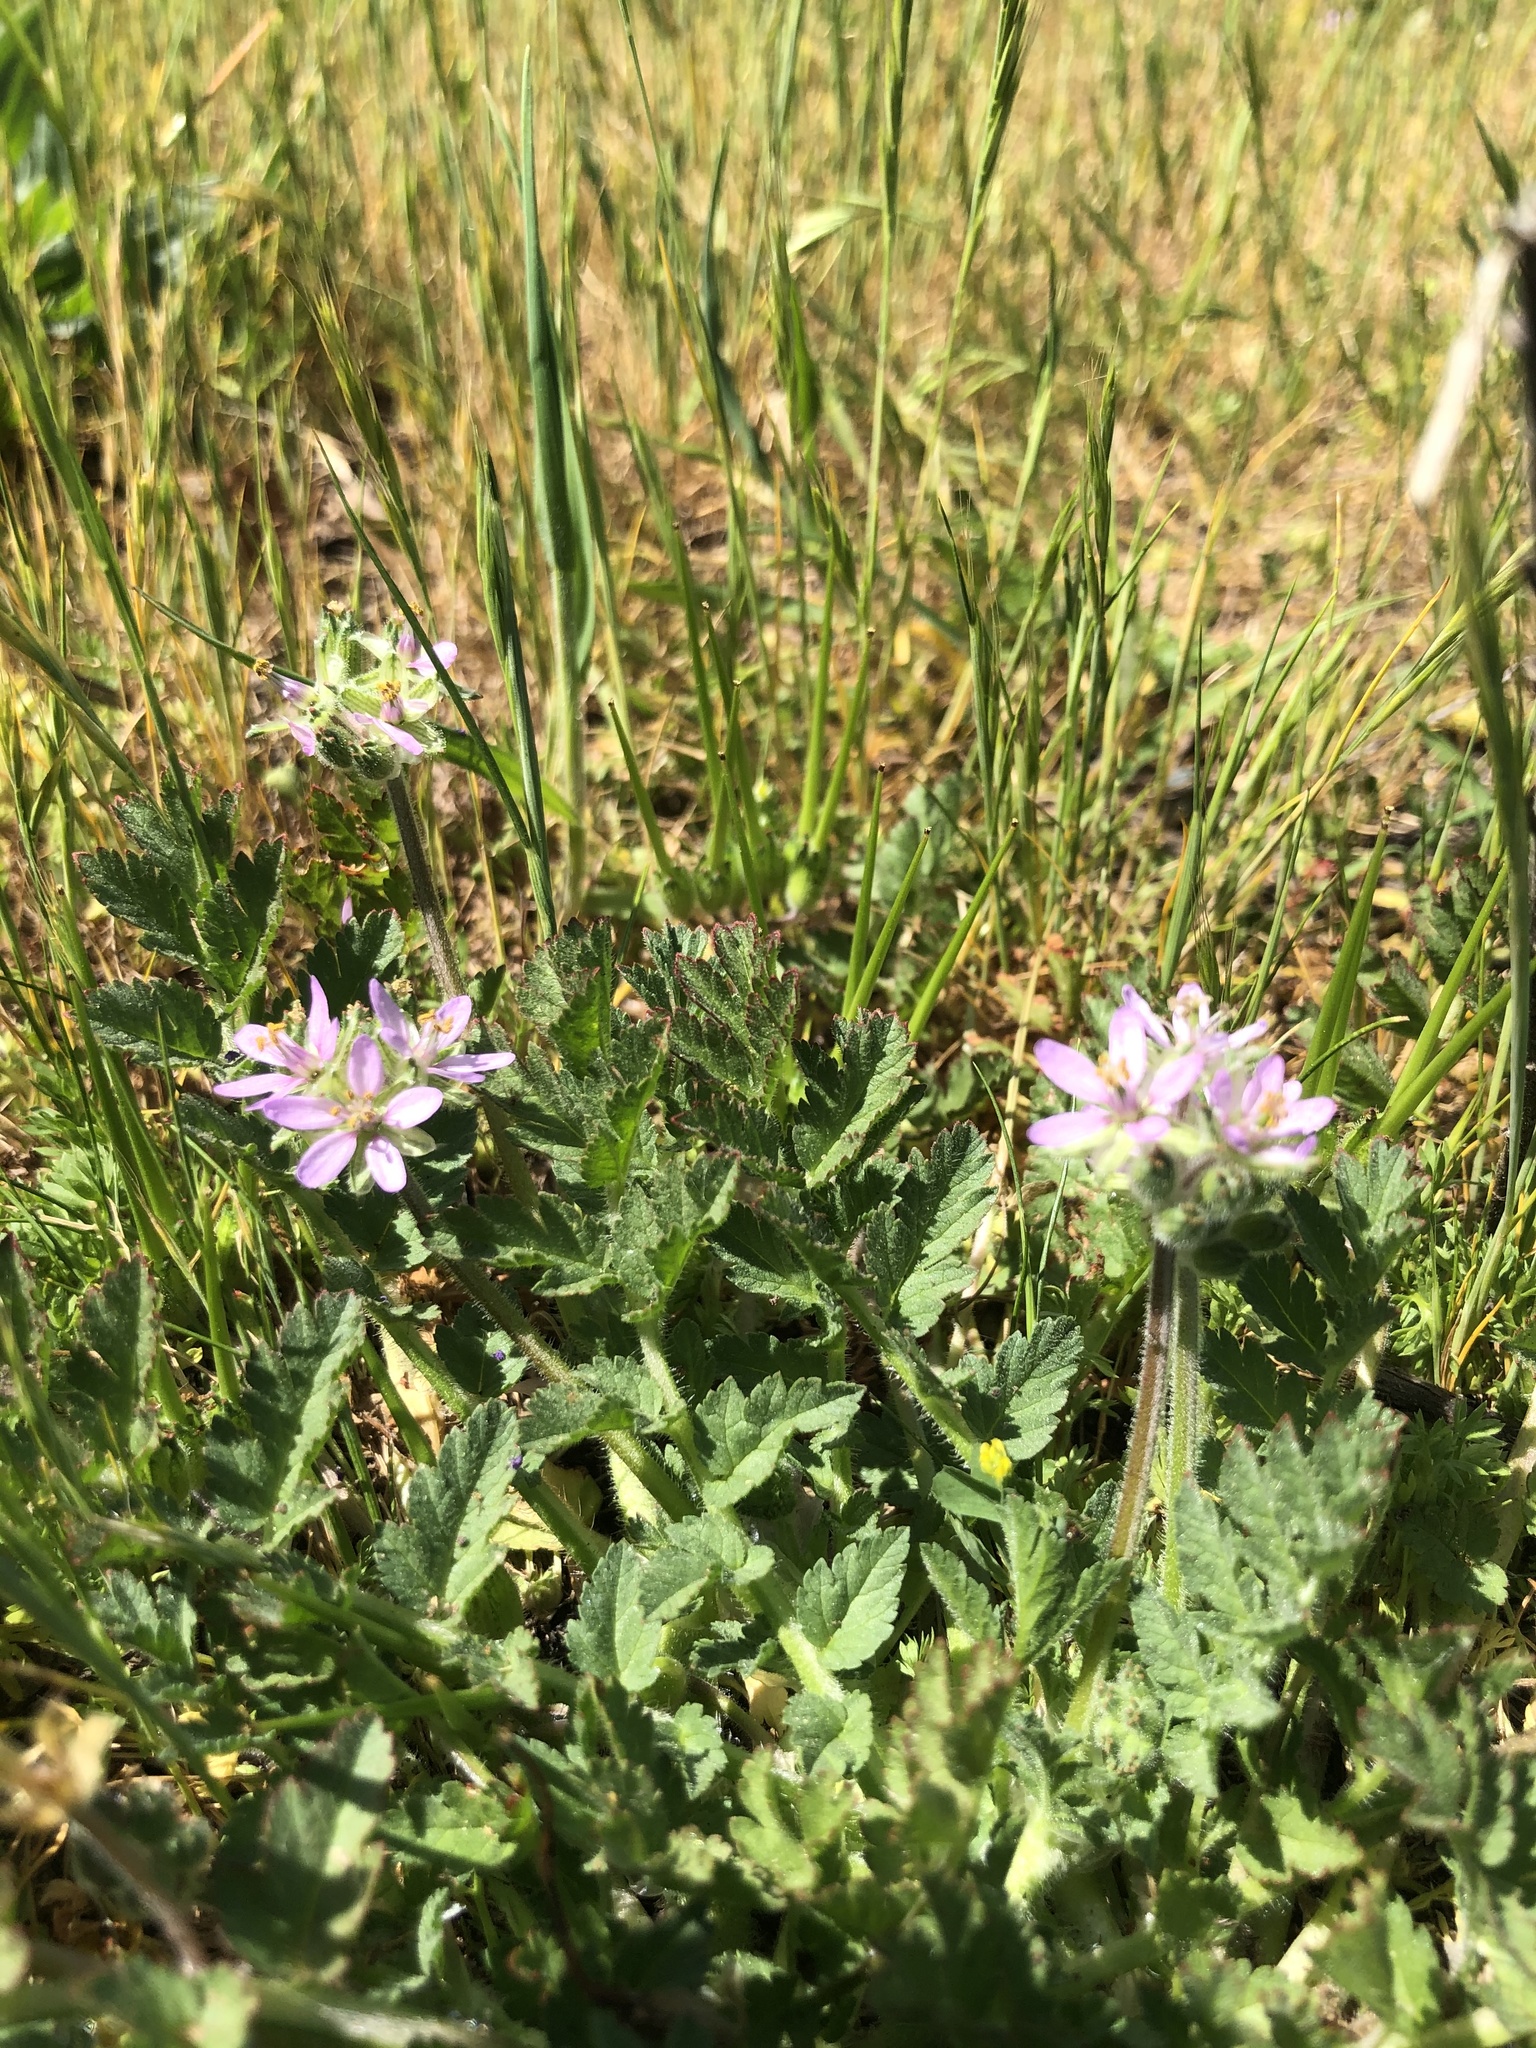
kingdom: Plantae
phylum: Tracheophyta
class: Magnoliopsida
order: Geraniales
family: Geraniaceae
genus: Erodium
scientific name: Erodium moschatum
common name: Musk stork's-bill
